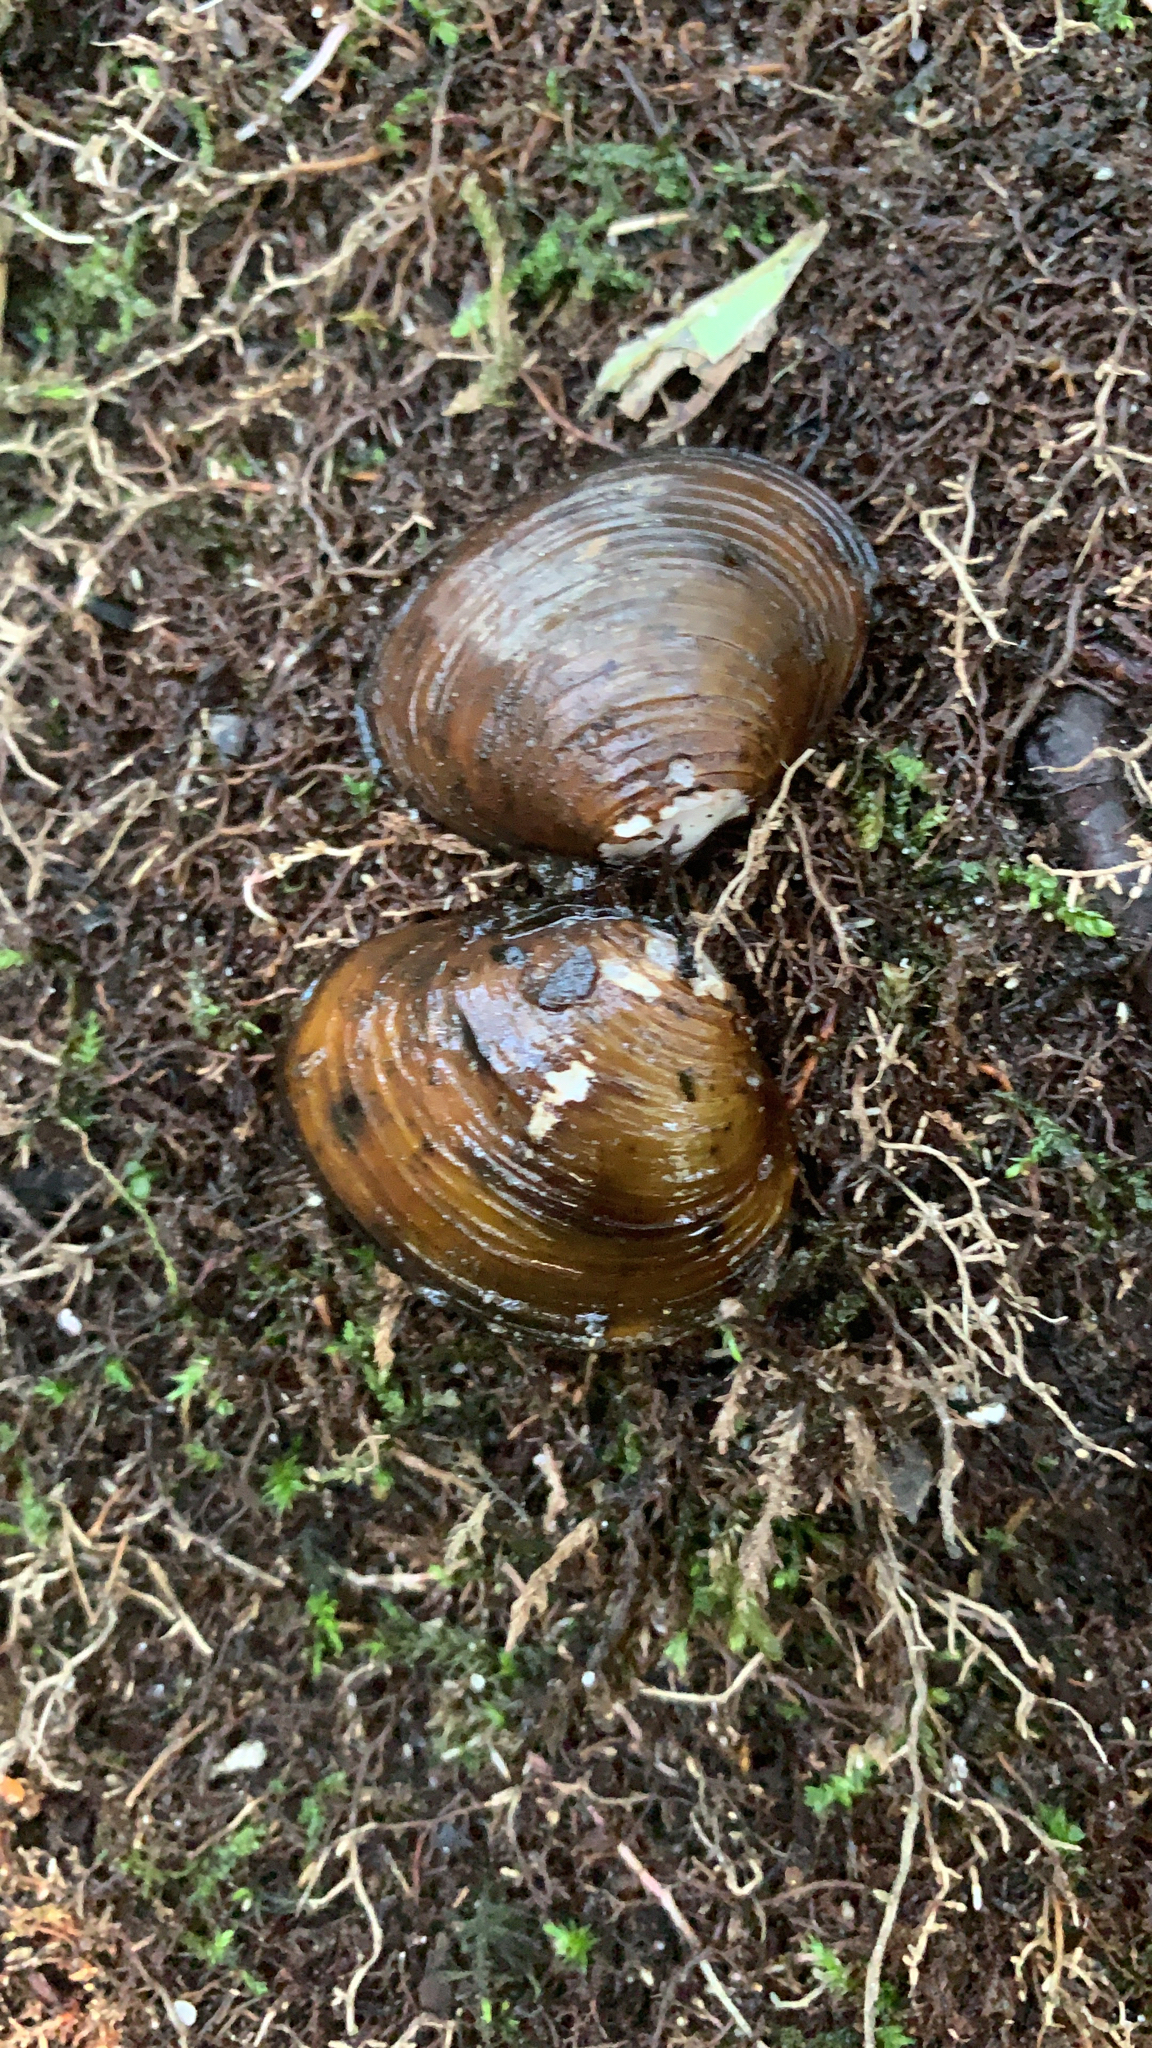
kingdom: Animalia
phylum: Mollusca
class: Bivalvia
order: Venerida
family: Cyrenidae
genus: Corbicula
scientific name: Corbicula fluminea
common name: Asian clam
